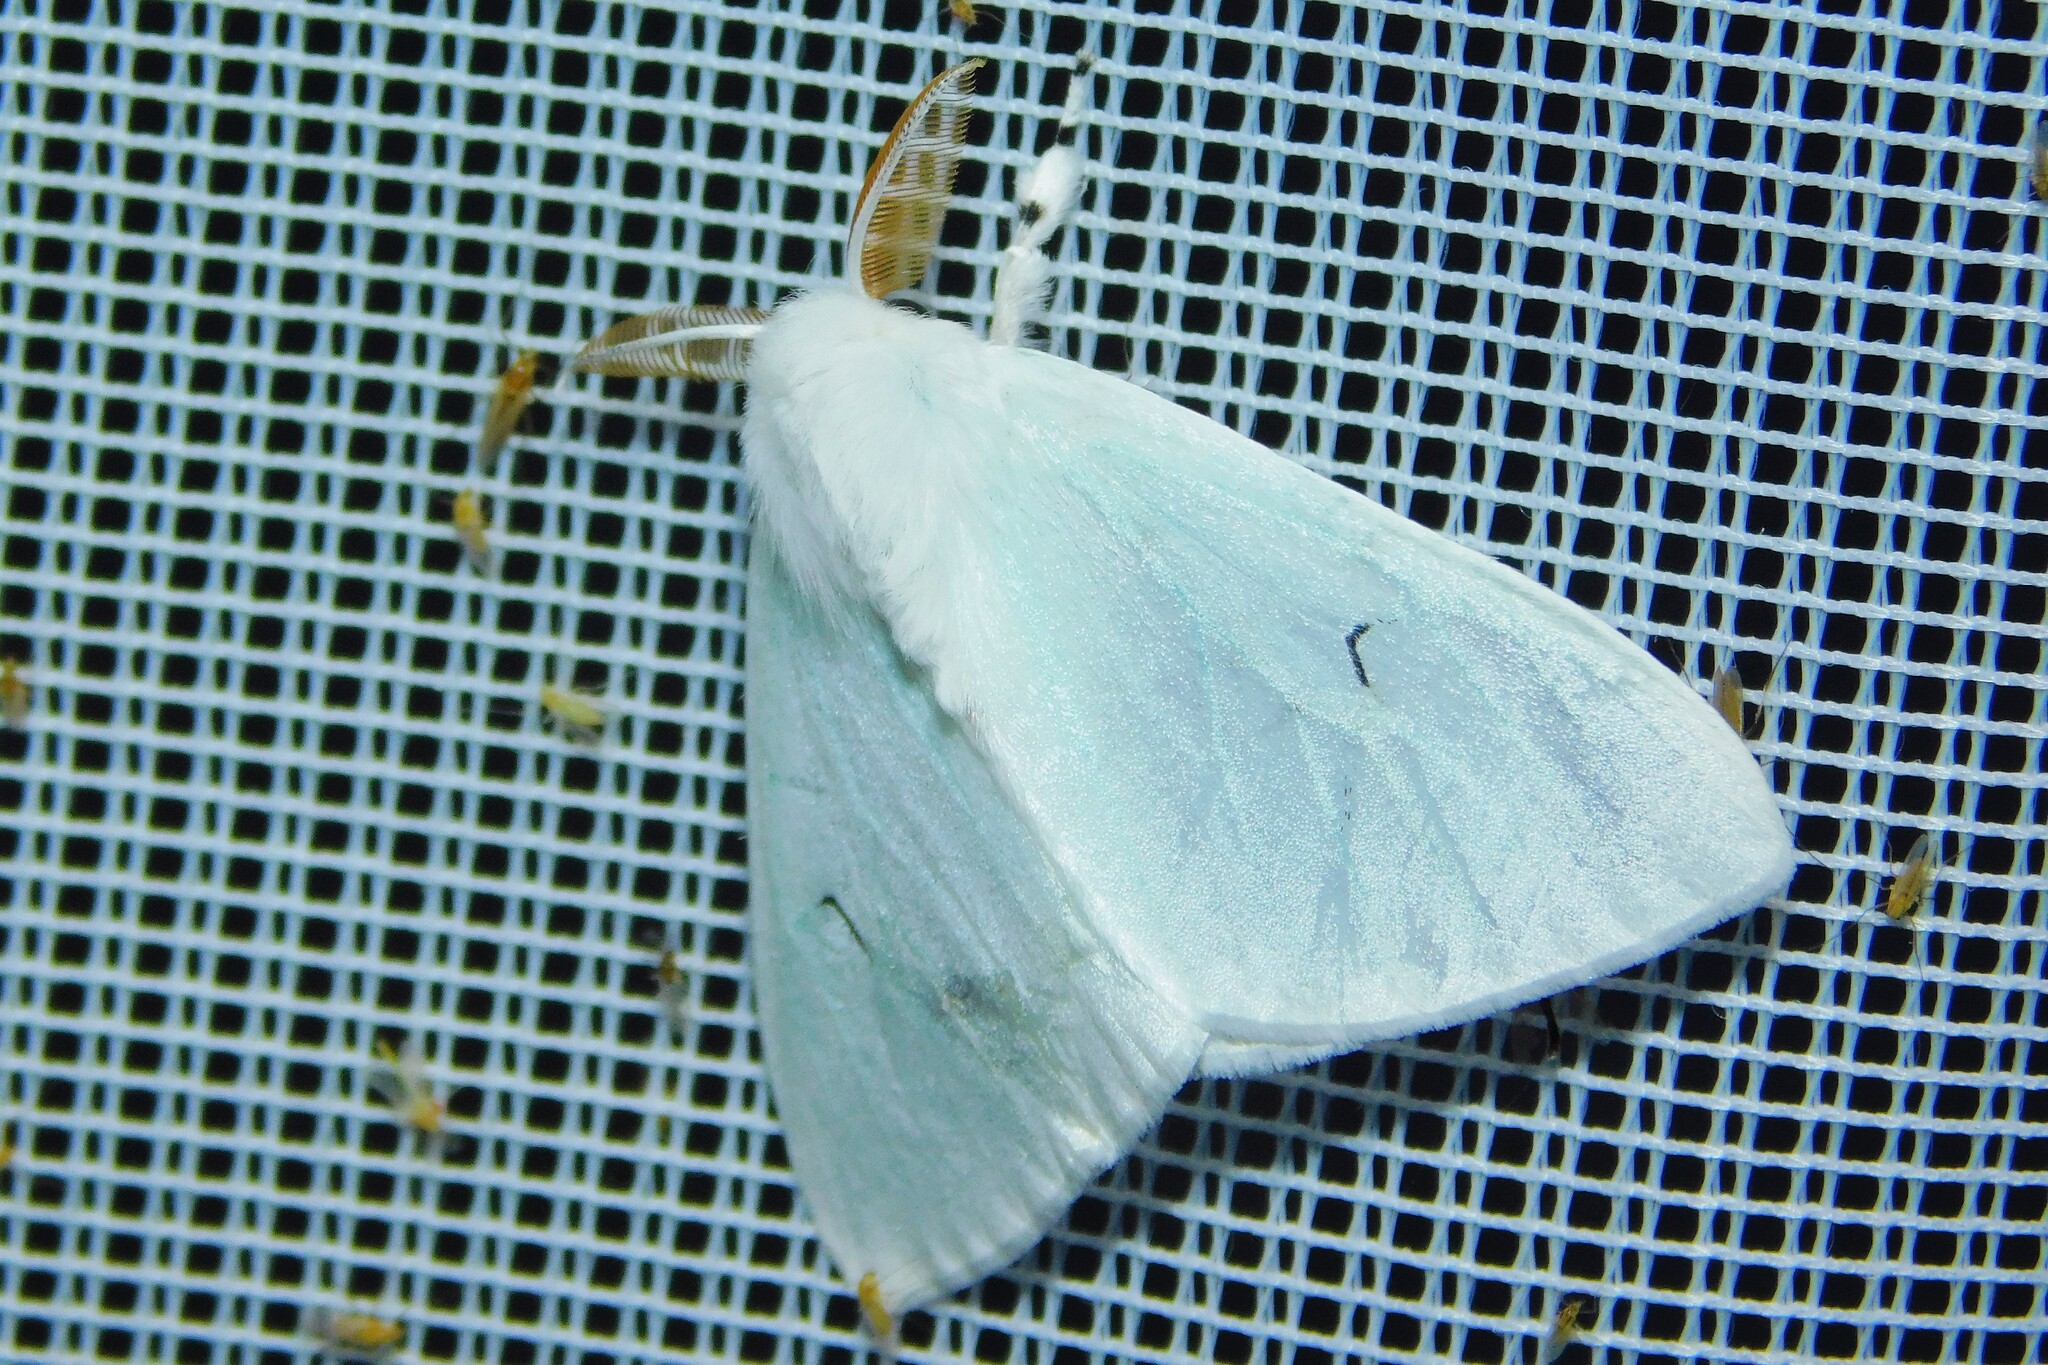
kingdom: Animalia
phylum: Arthropoda
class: Insecta
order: Lepidoptera
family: Erebidae
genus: Arctornis
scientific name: Arctornis l-nigrum
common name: Black v moth
